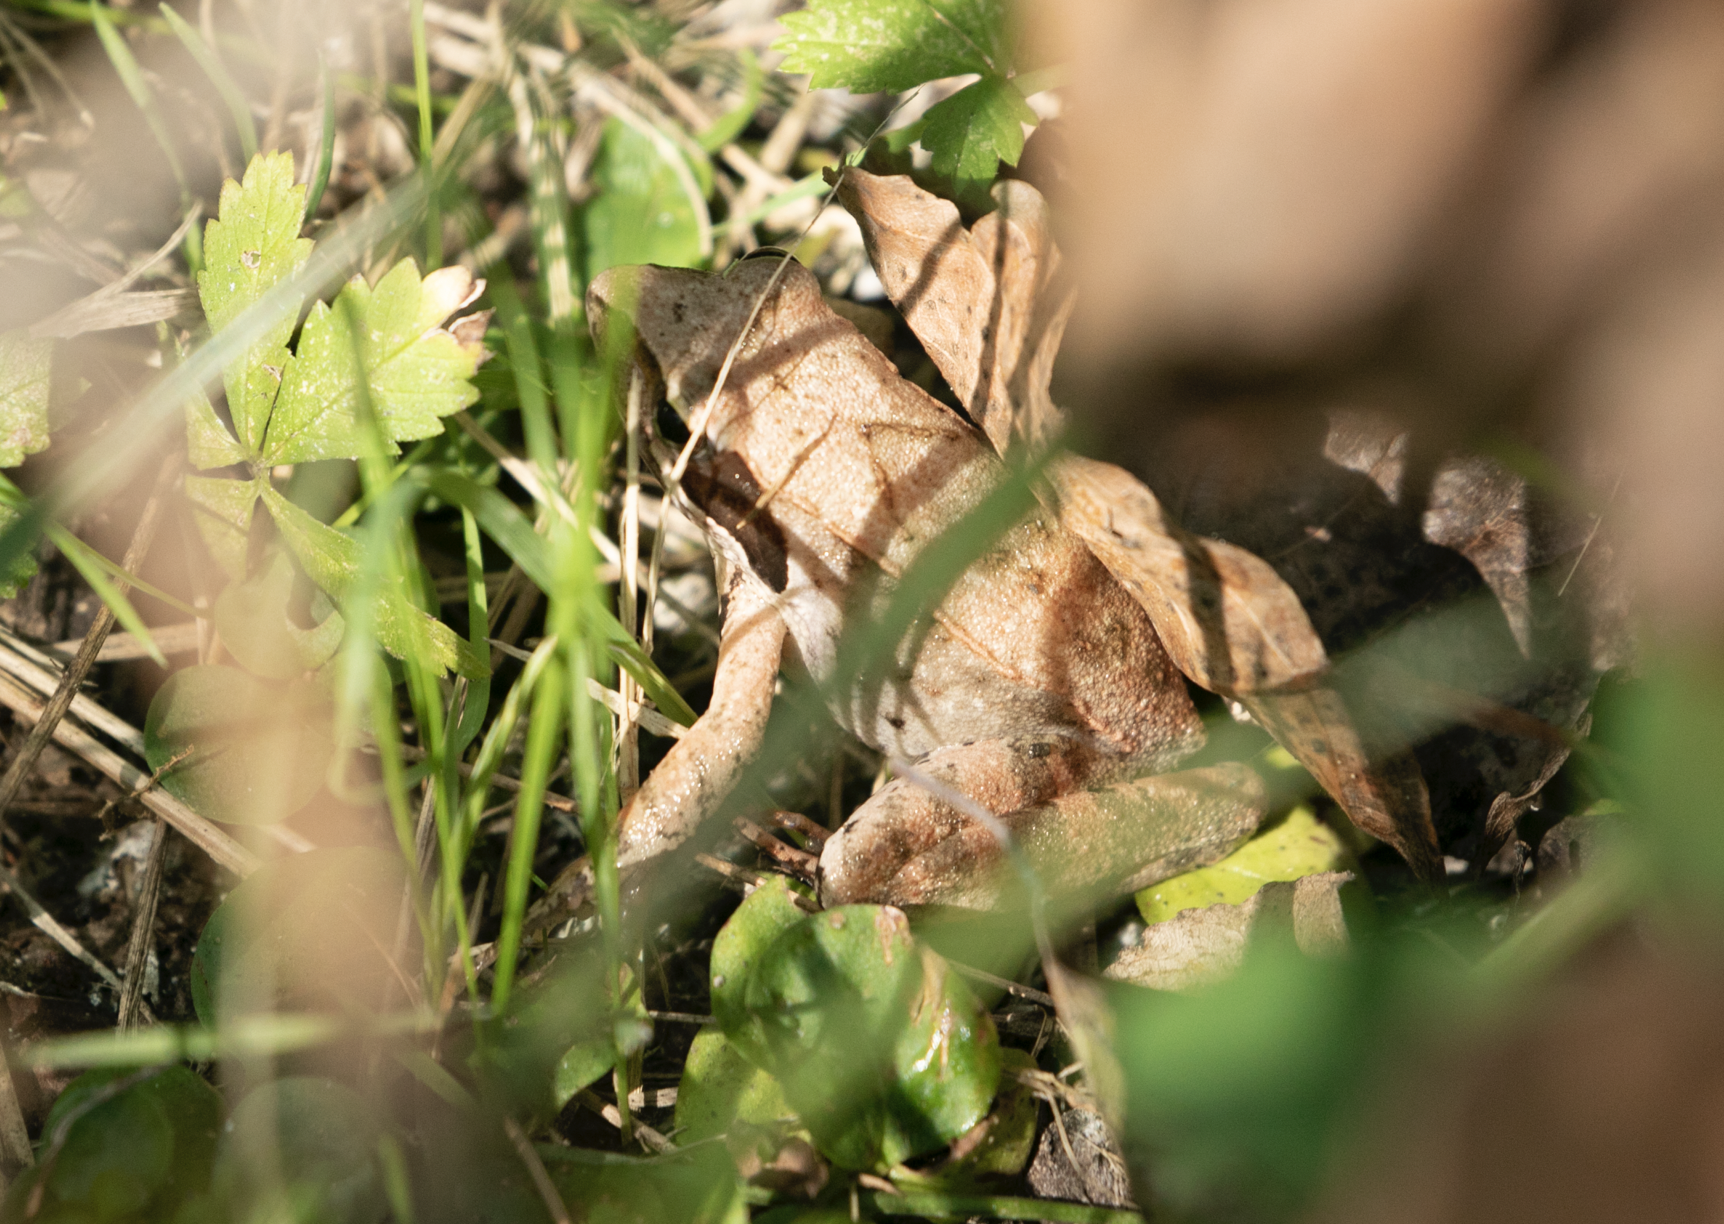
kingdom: Animalia
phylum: Chordata
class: Amphibia
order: Anura
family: Ranidae
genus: Rana
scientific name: Rana latastei
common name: Italian agile frog
